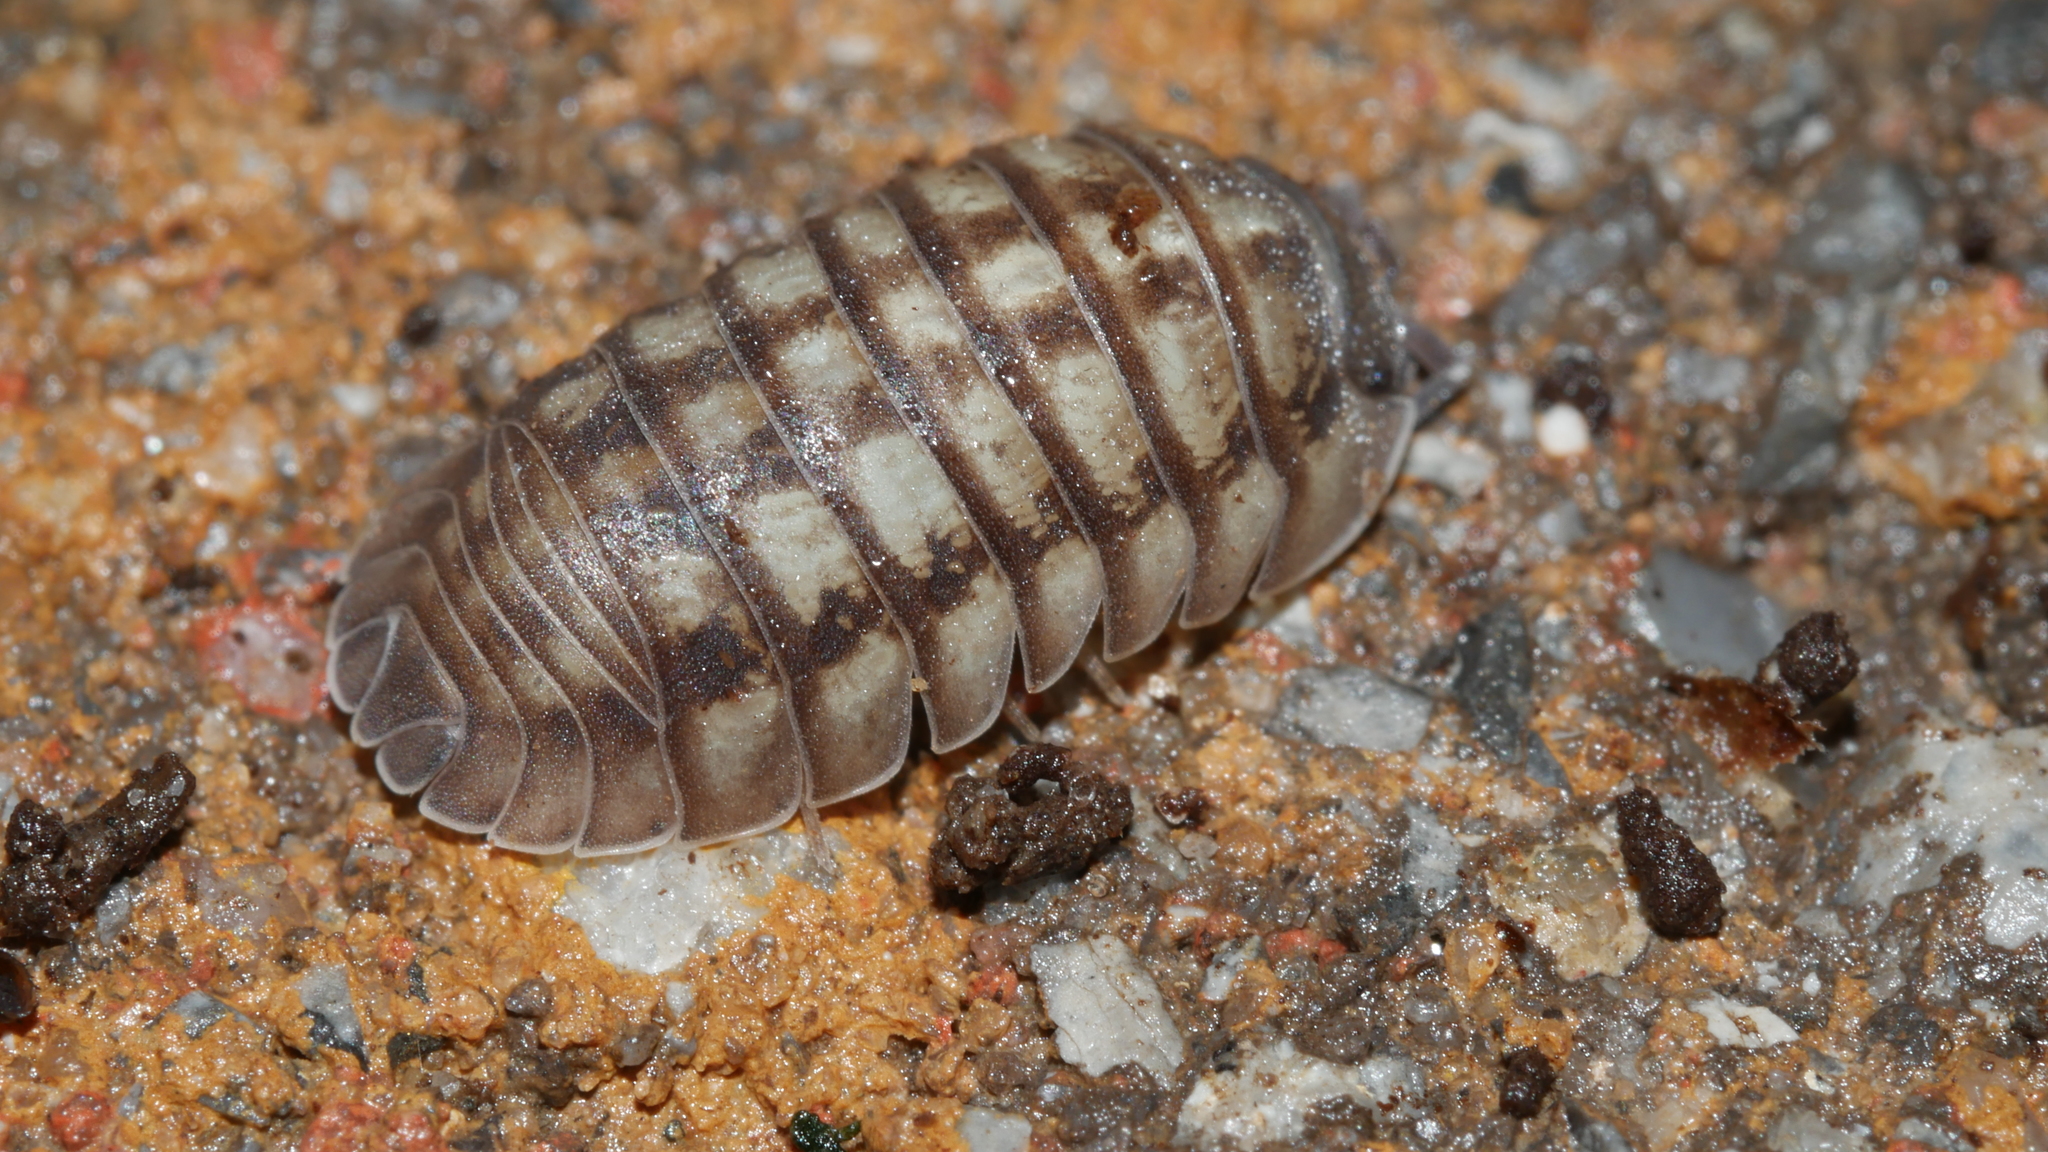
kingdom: Animalia
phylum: Arthropoda
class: Malacostraca
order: Isopoda
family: Armadillidiidae
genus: Armadillidium
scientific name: Armadillidium nasatum
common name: Isopod
